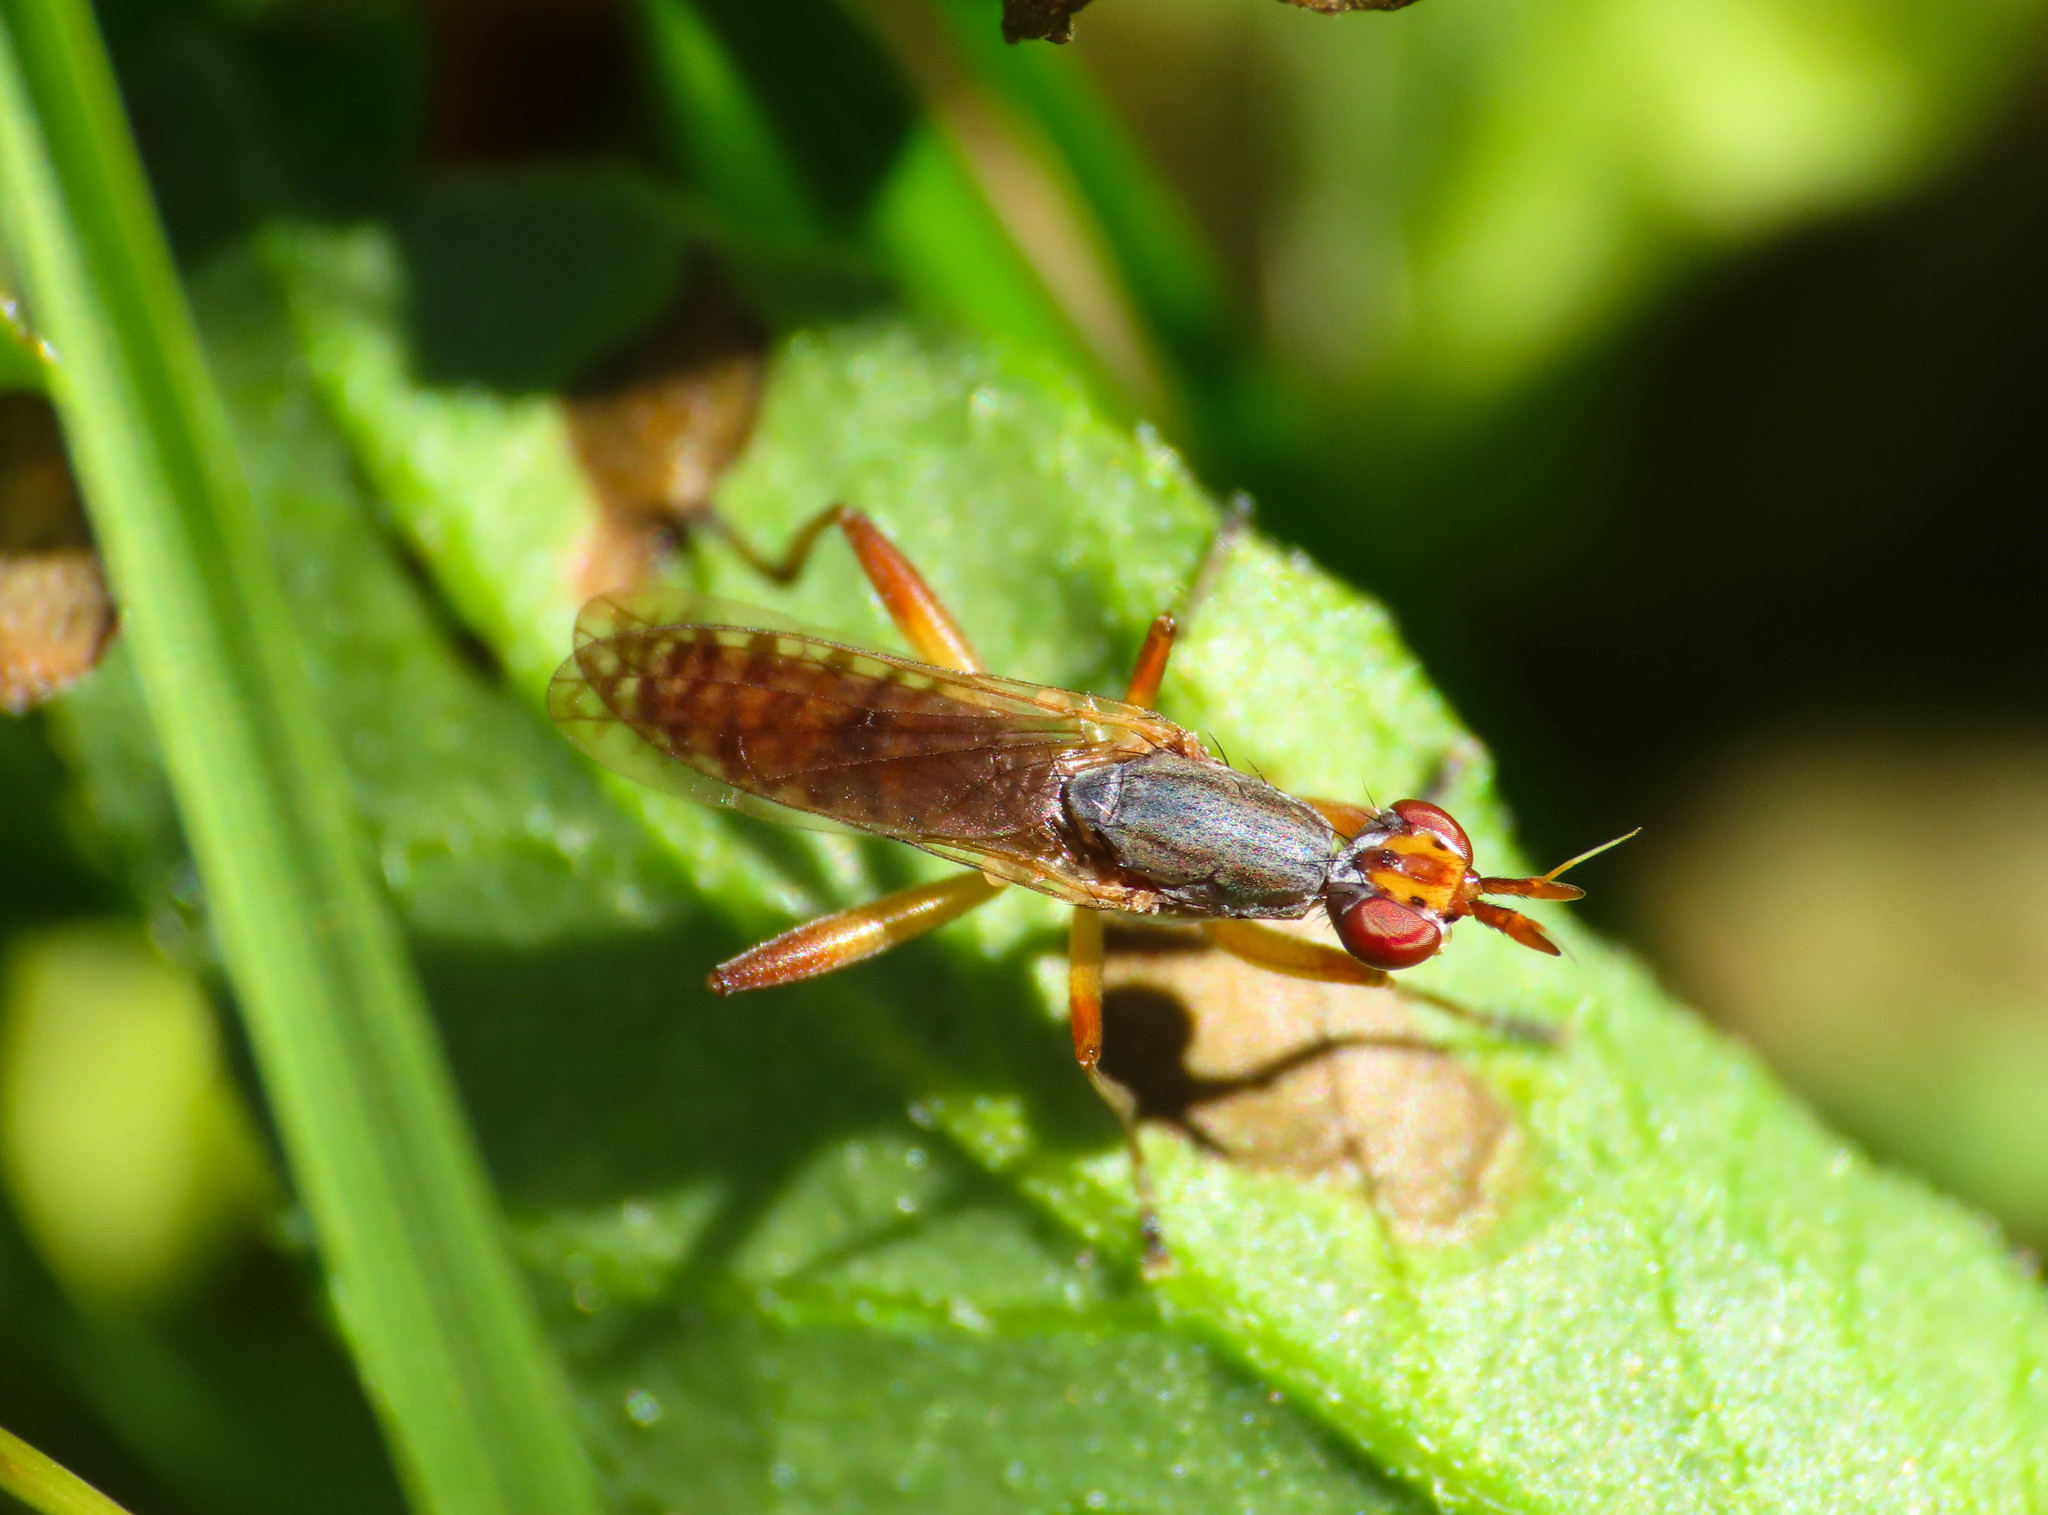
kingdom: Animalia
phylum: Arthropoda
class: Insecta
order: Diptera
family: Sciomyzidae
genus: Dichetophora
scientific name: Dichetophora obliterata
